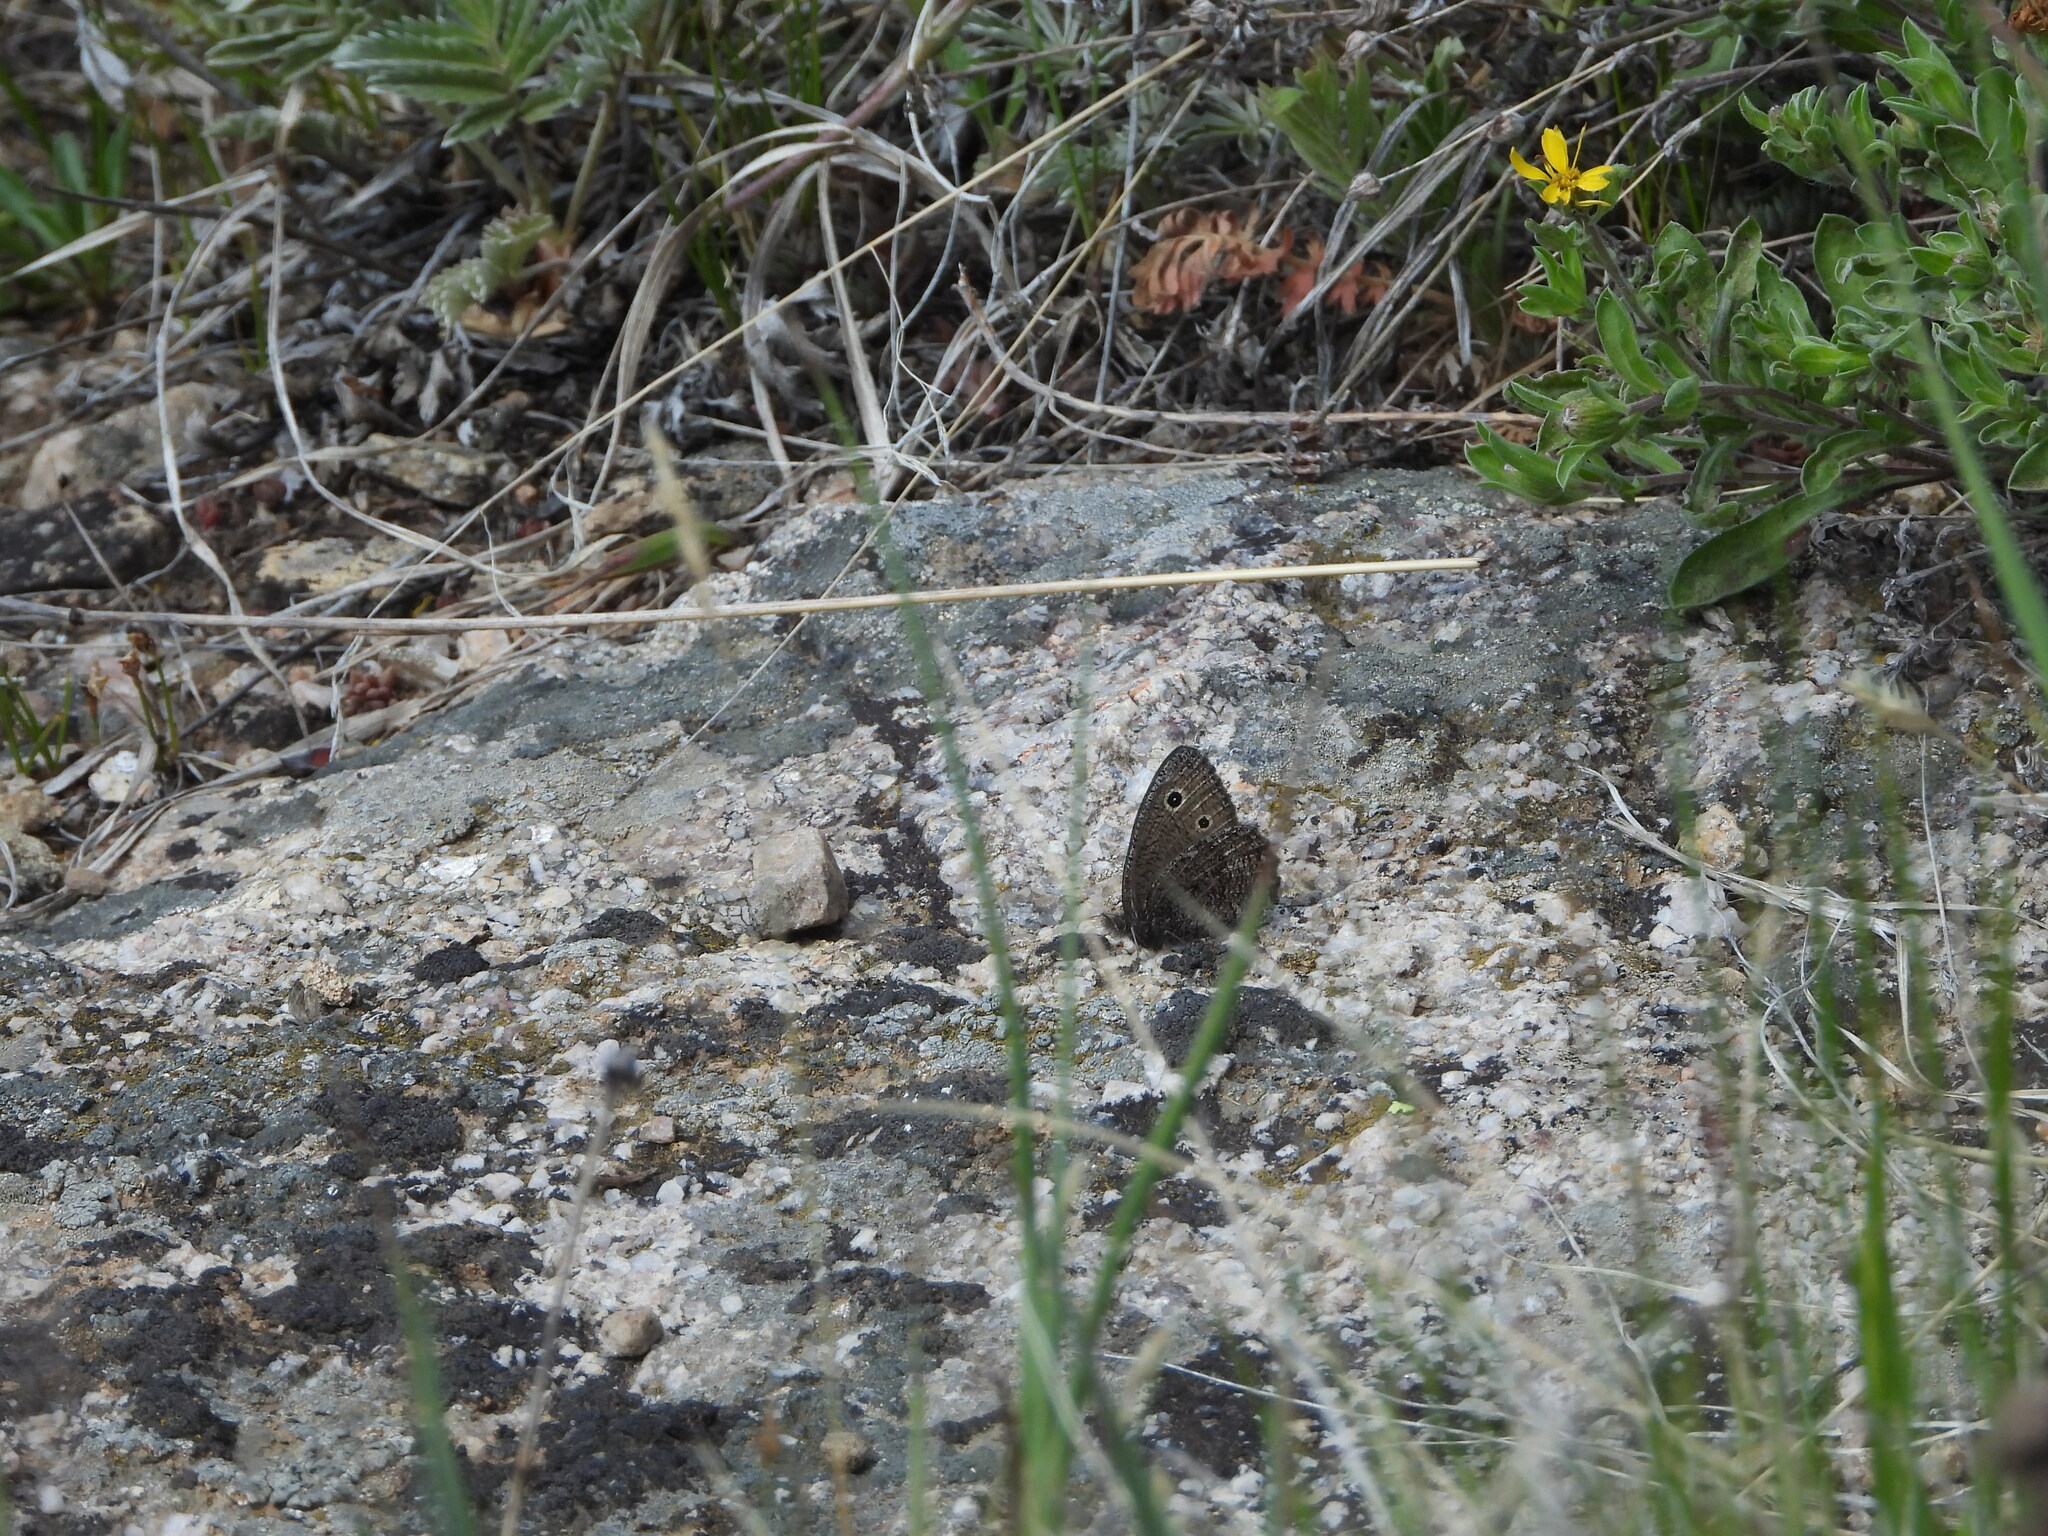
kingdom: Animalia
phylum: Arthropoda
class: Insecta
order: Lepidoptera
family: Nymphalidae
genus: Cercyonis
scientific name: Cercyonis oetus
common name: Small wood-nymph
